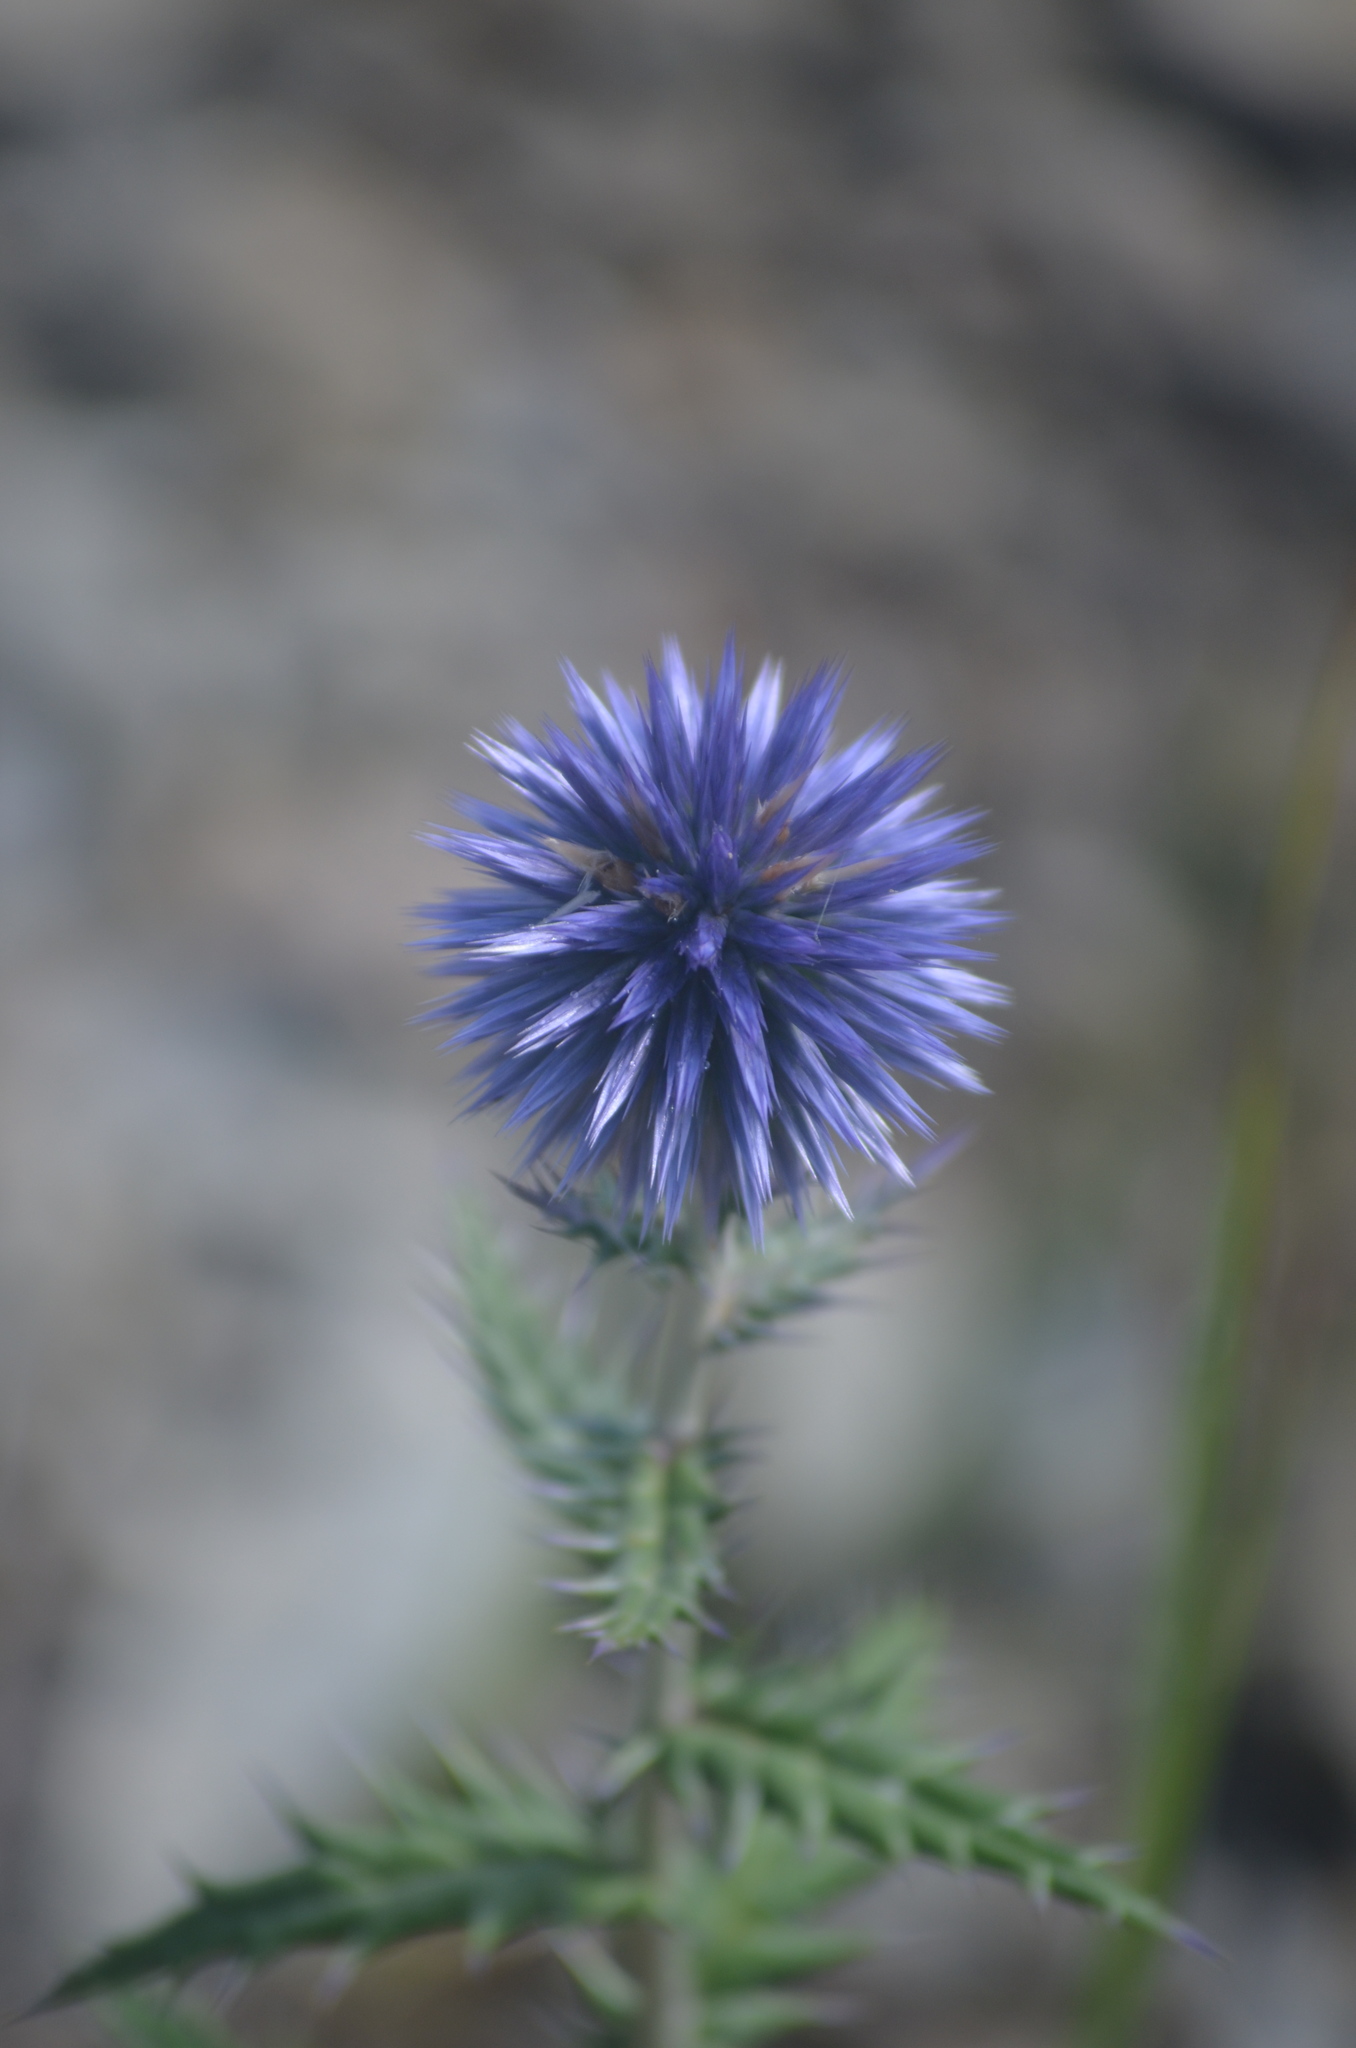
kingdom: Plantae
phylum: Tracheophyta
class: Magnoliopsida
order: Asterales
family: Asteraceae
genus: Echinops
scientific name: Echinops ritro
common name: Globe thistle
